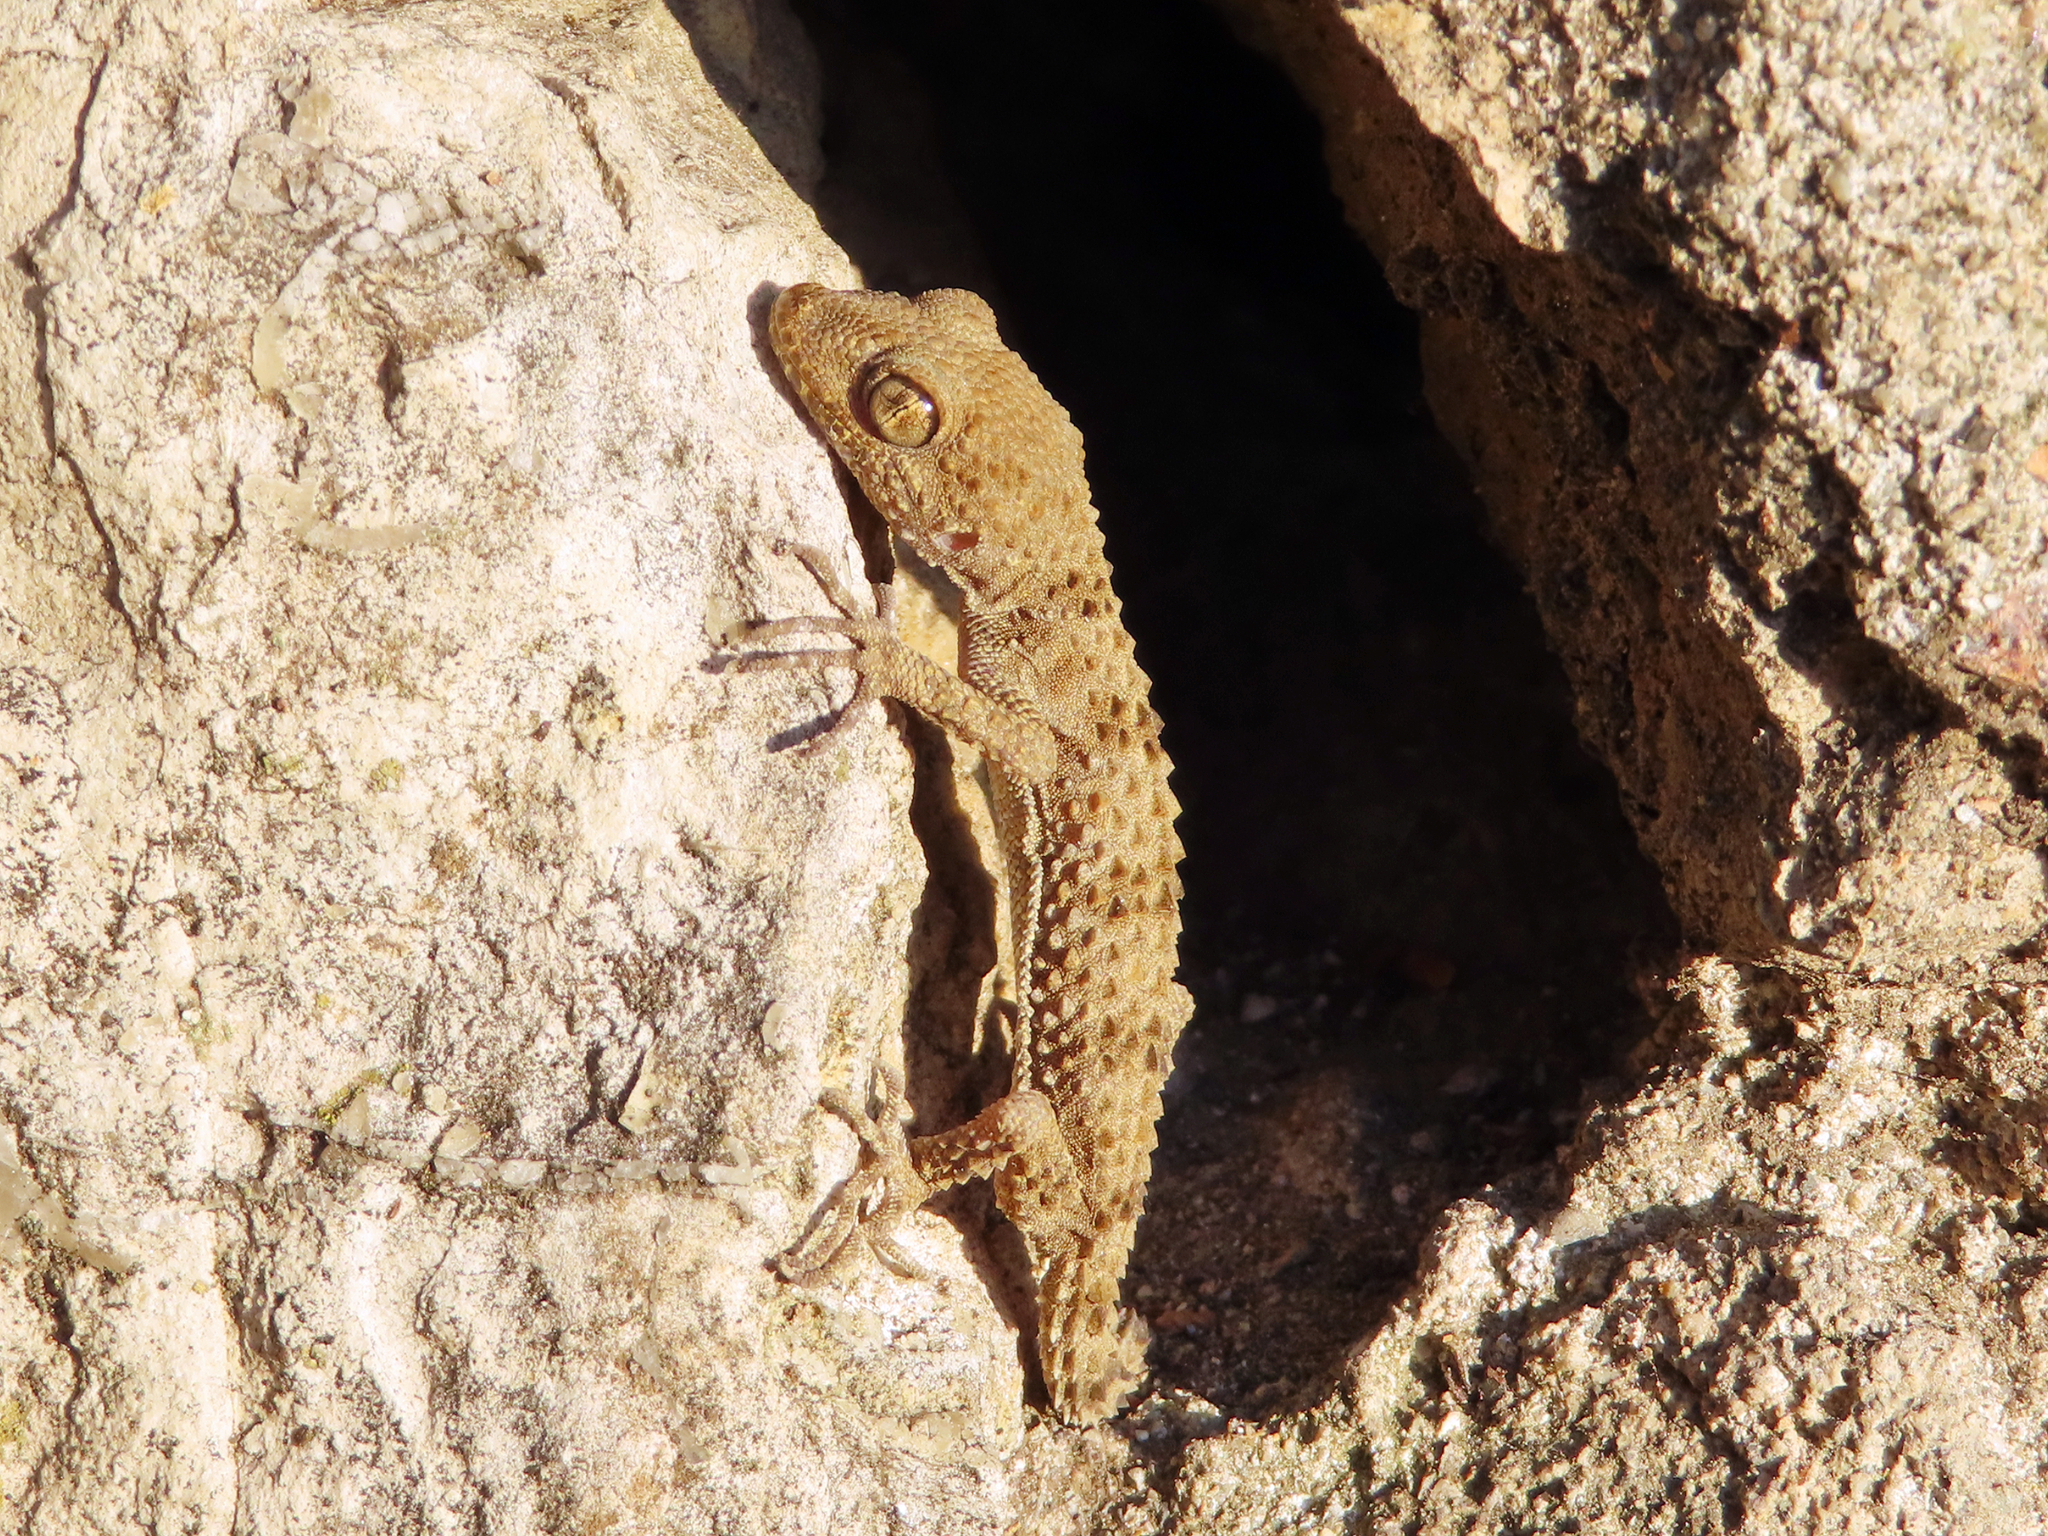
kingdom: Animalia
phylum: Chordata
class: Squamata
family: Gekkonidae
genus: Tenuidactylus
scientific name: Tenuidactylus caspius
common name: Caspian bent-toed gecko
